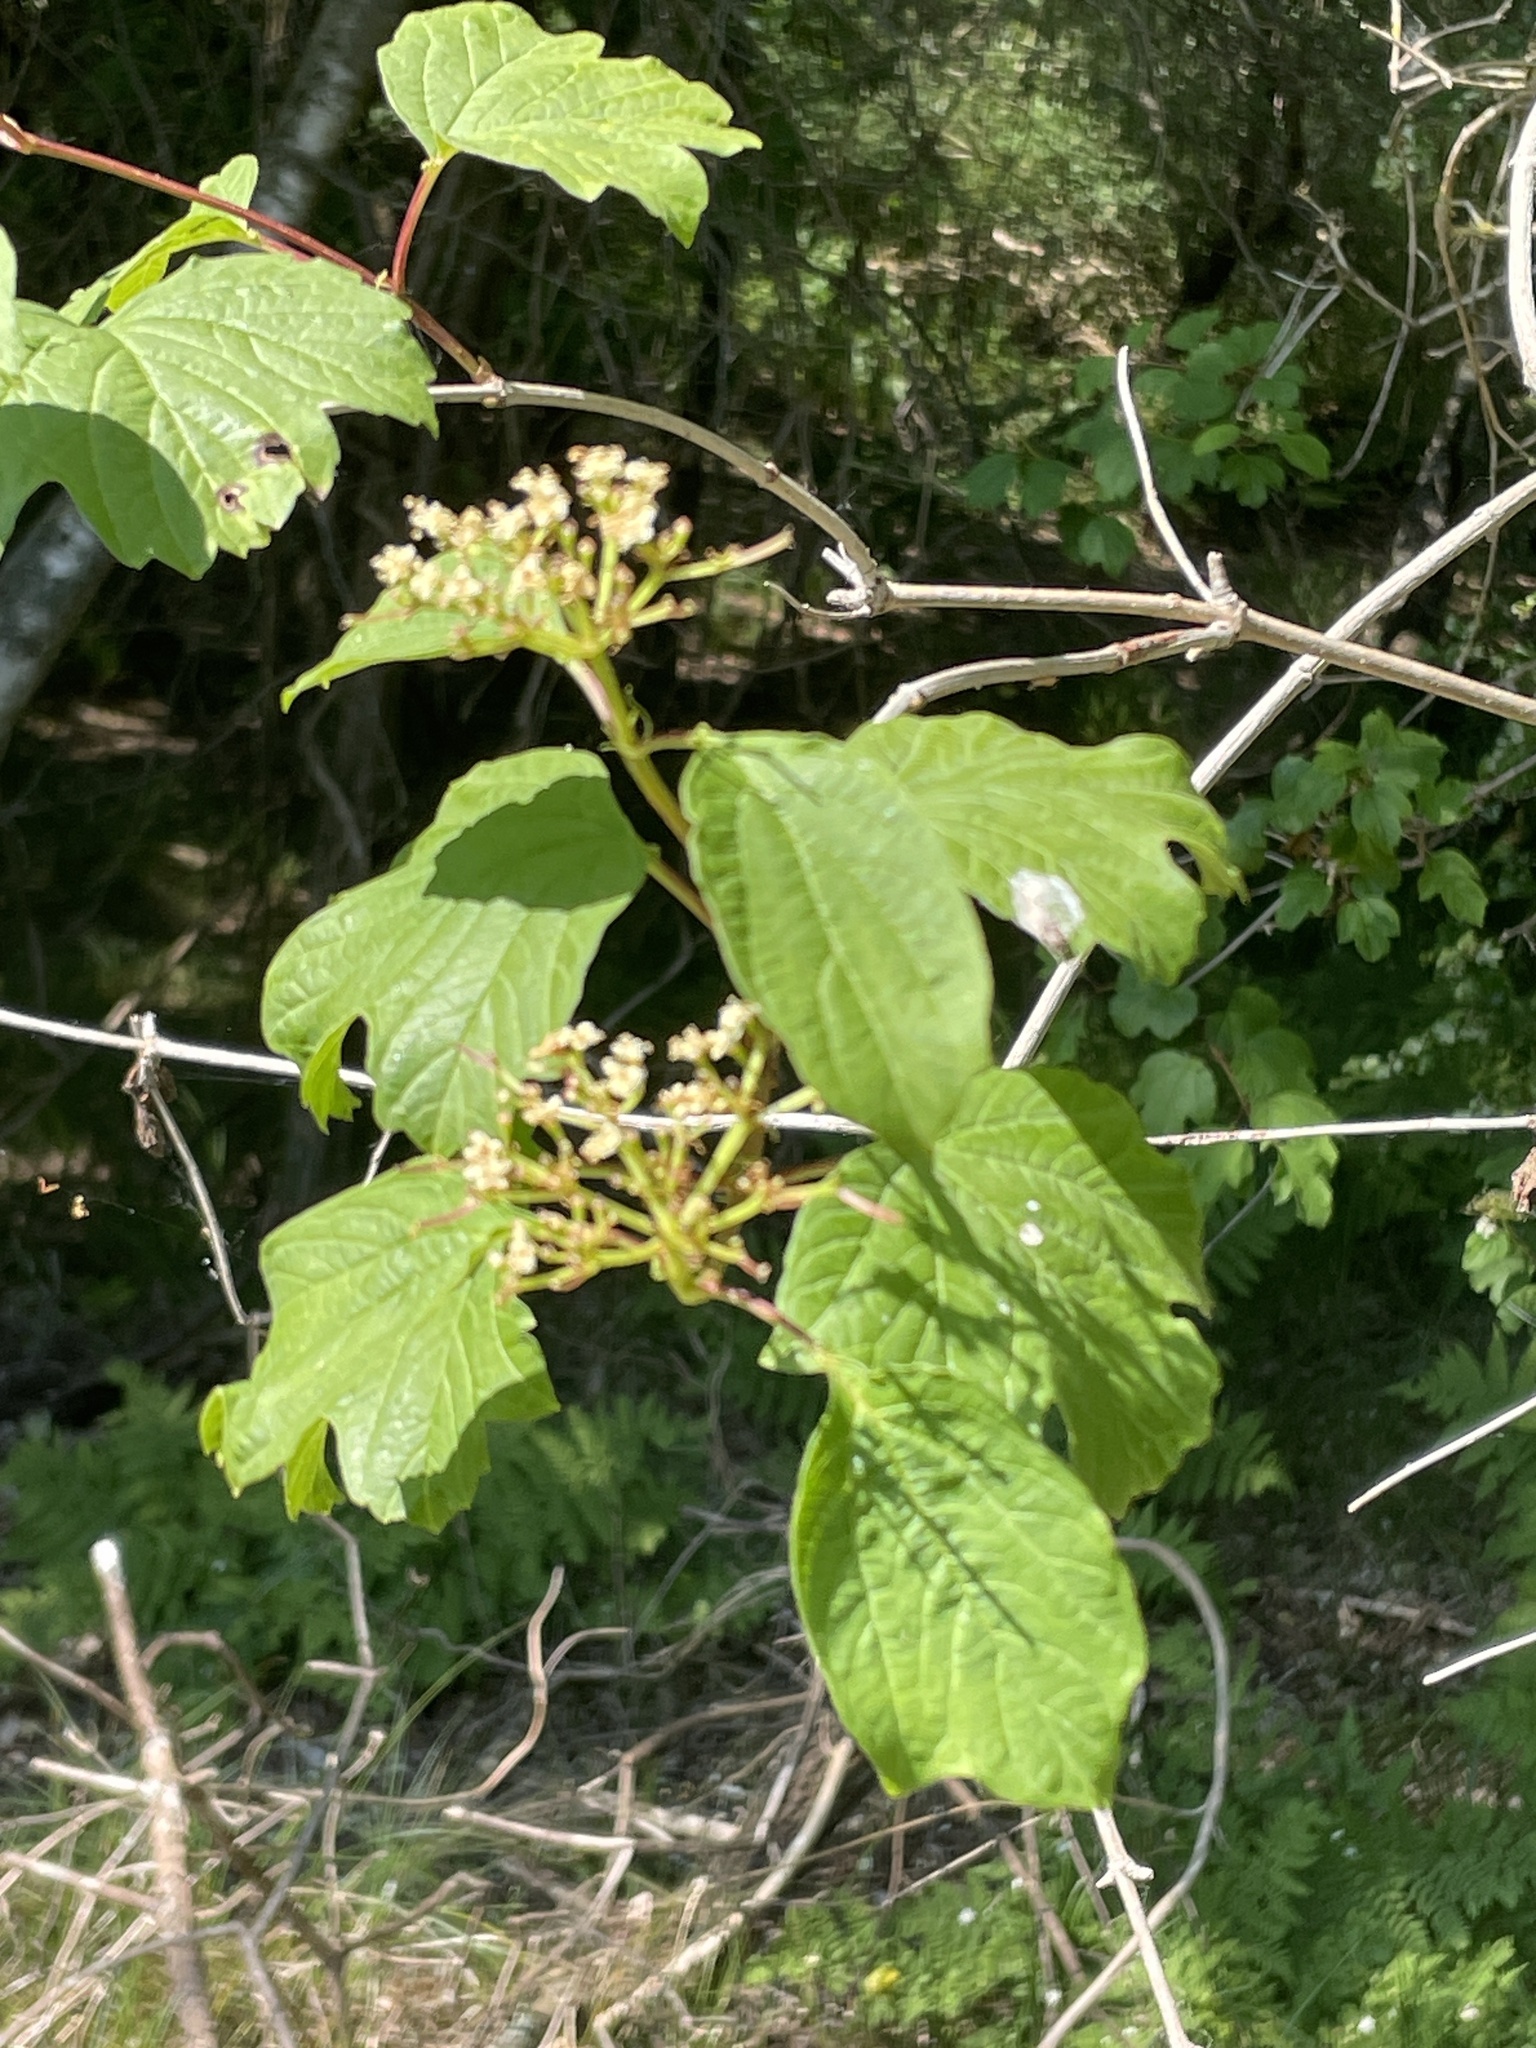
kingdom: Plantae
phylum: Tracheophyta
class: Magnoliopsida
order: Dipsacales
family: Viburnaceae
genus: Viburnum
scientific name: Viburnum opulus
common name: Guelder-rose
